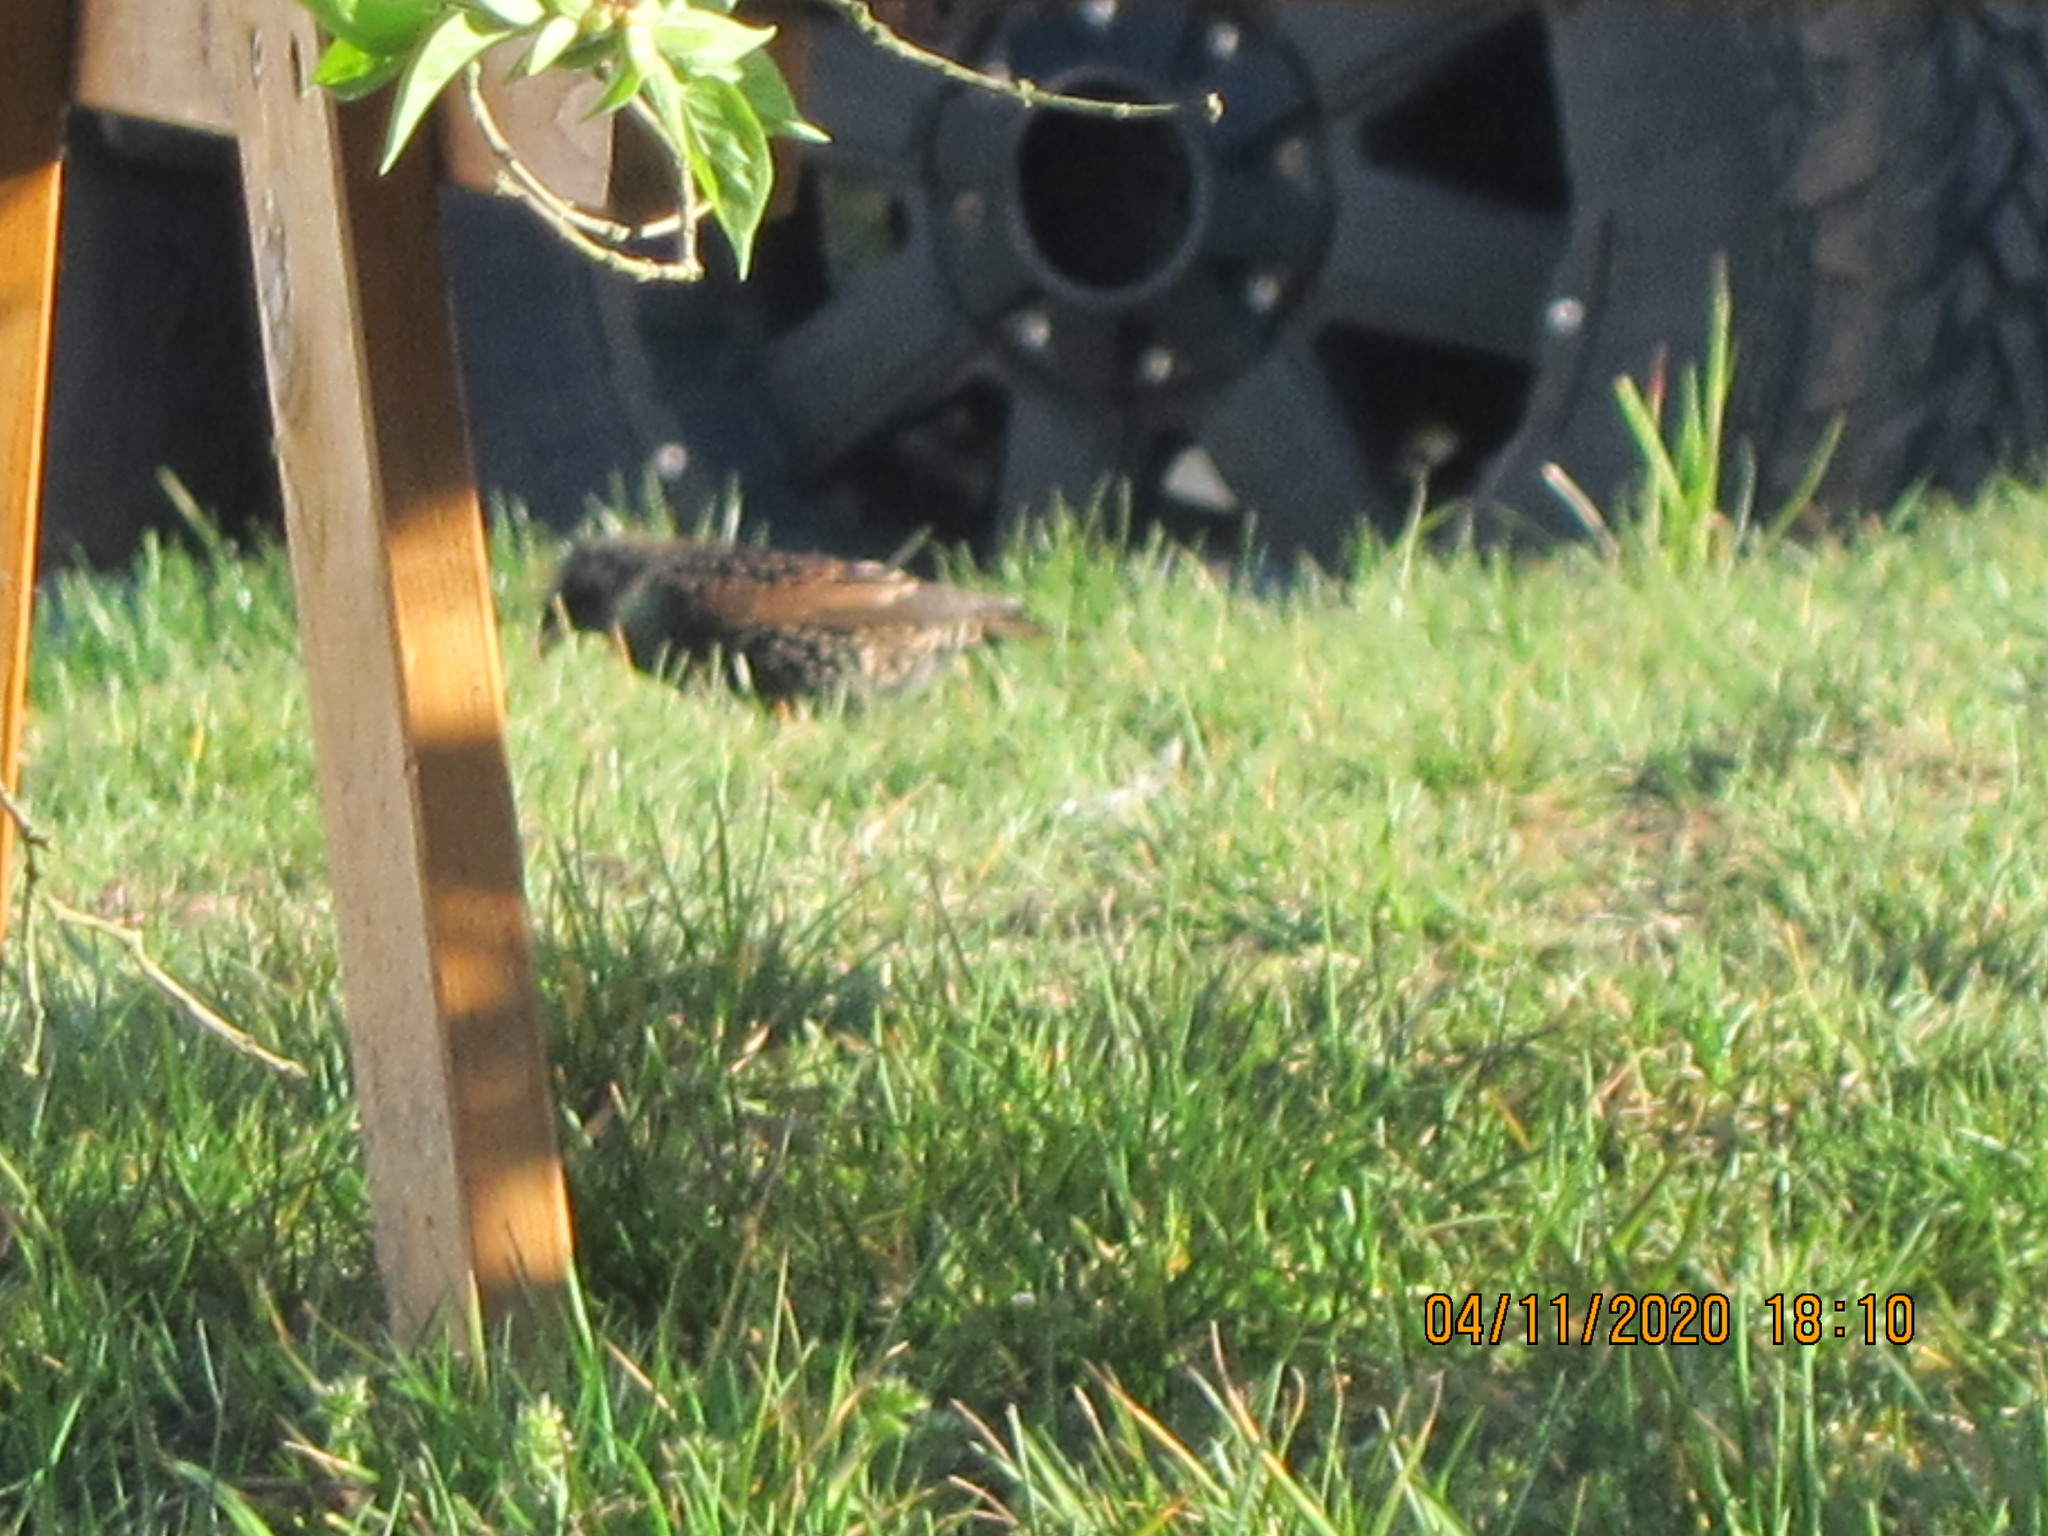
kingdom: Animalia
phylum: Chordata
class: Aves
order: Passeriformes
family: Sturnidae
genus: Sturnus
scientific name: Sturnus vulgaris
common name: Common starling
